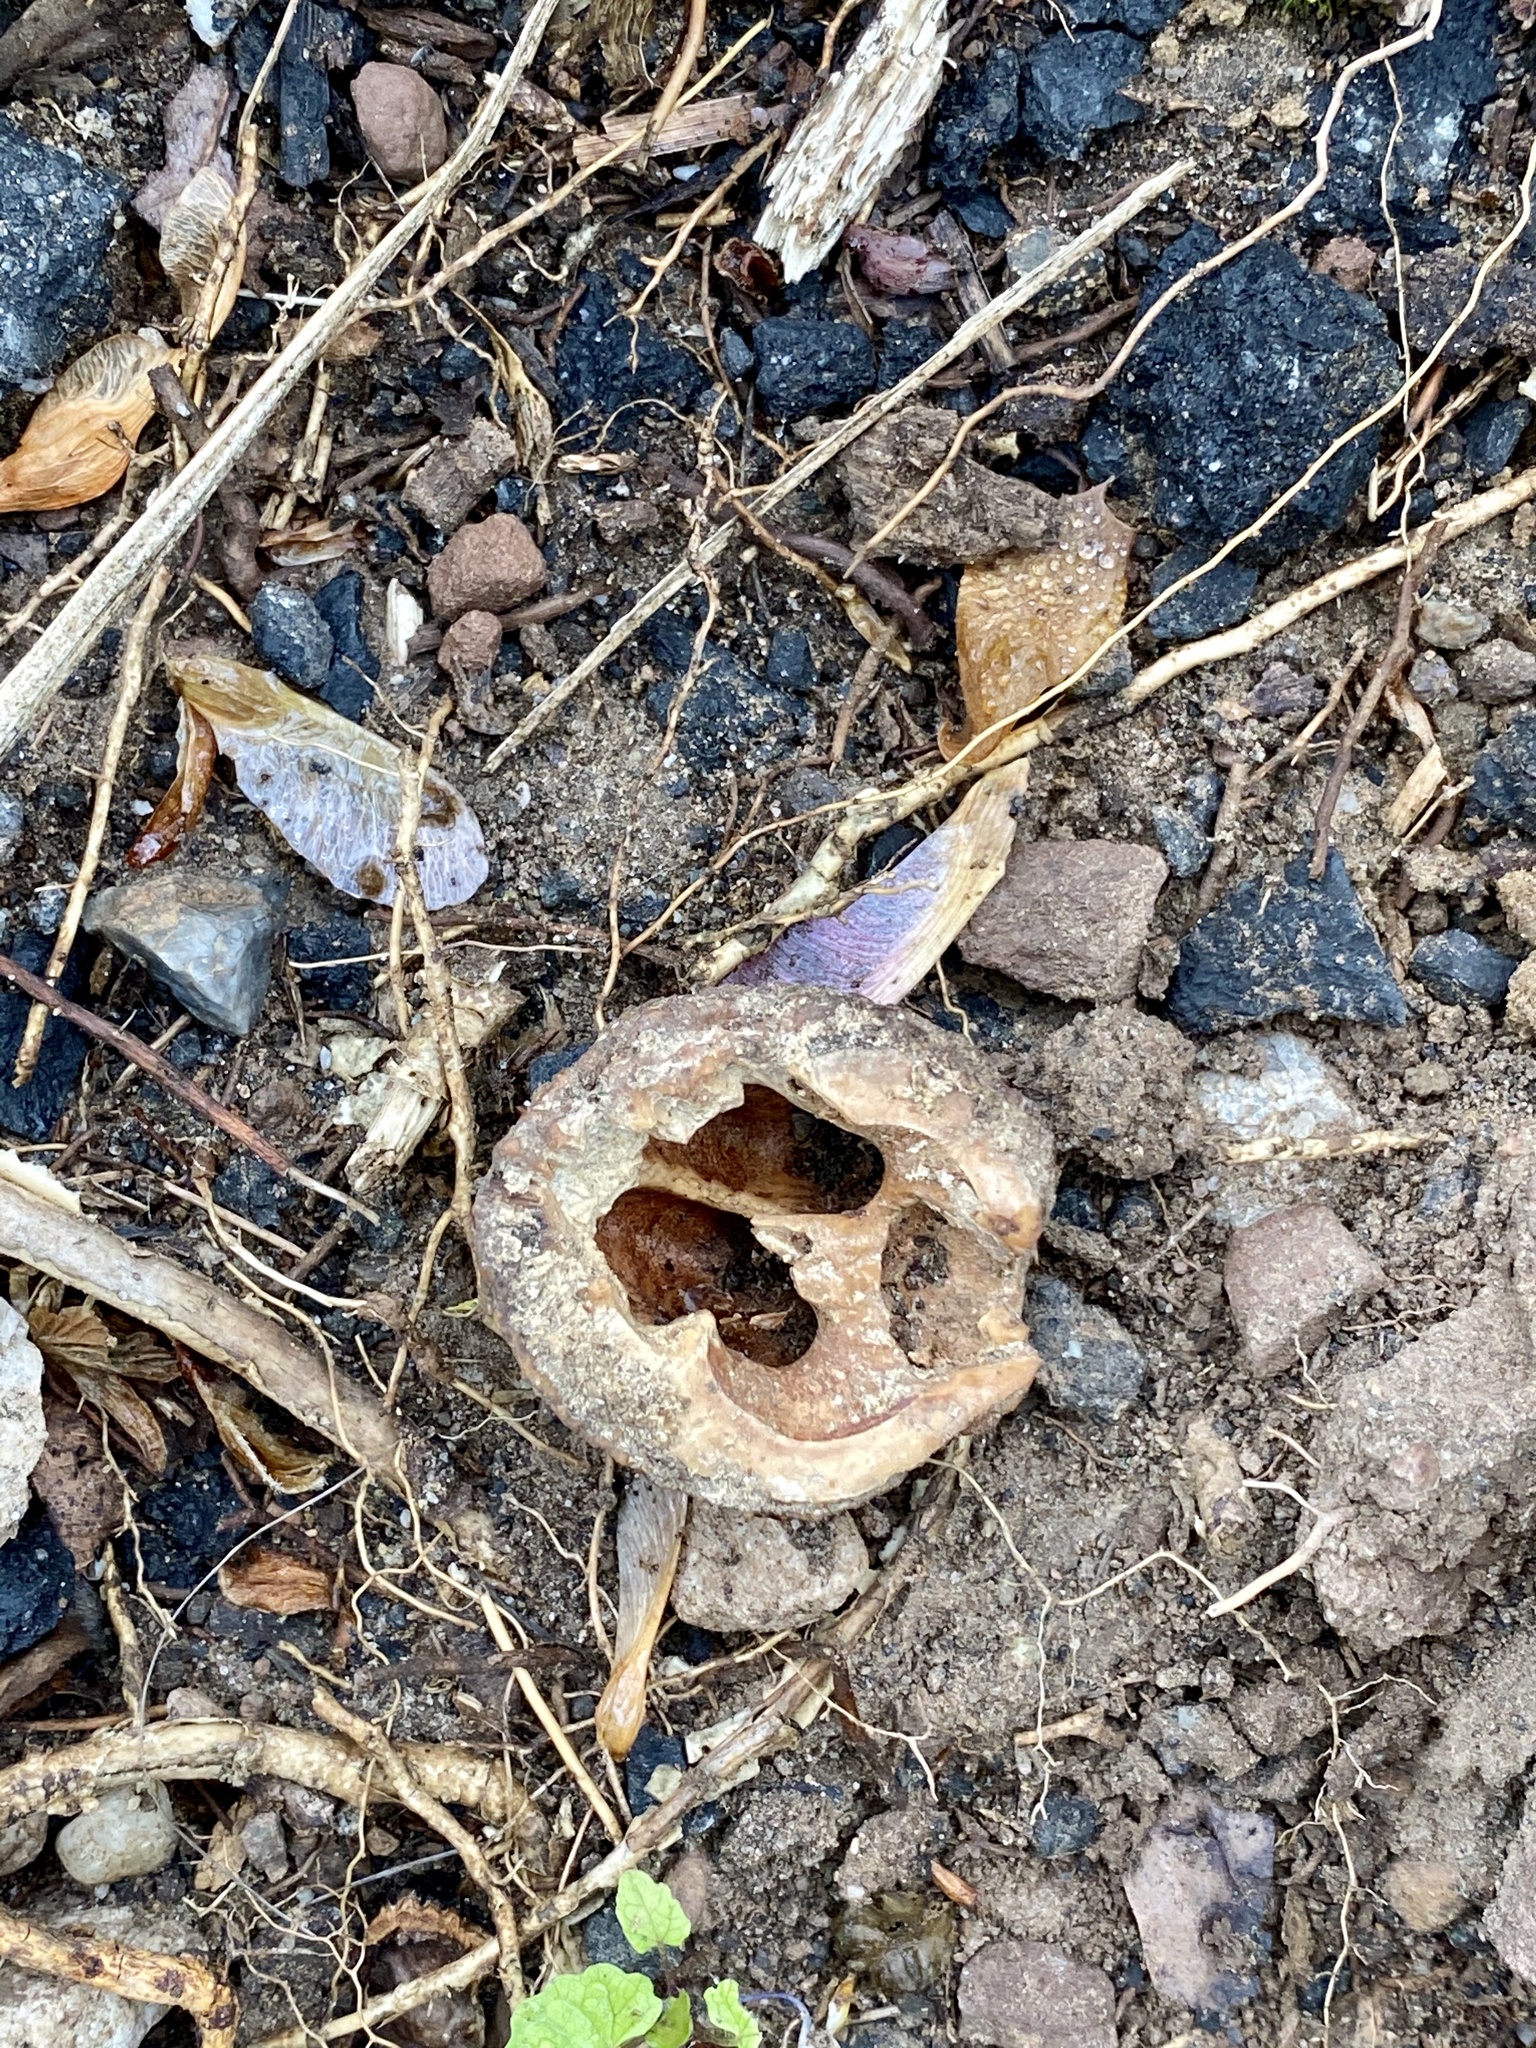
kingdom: Plantae
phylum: Tracheophyta
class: Magnoliopsida
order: Fagales
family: Juglandaceae
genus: Juglans
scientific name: Juglans nigra
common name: Black walnut
